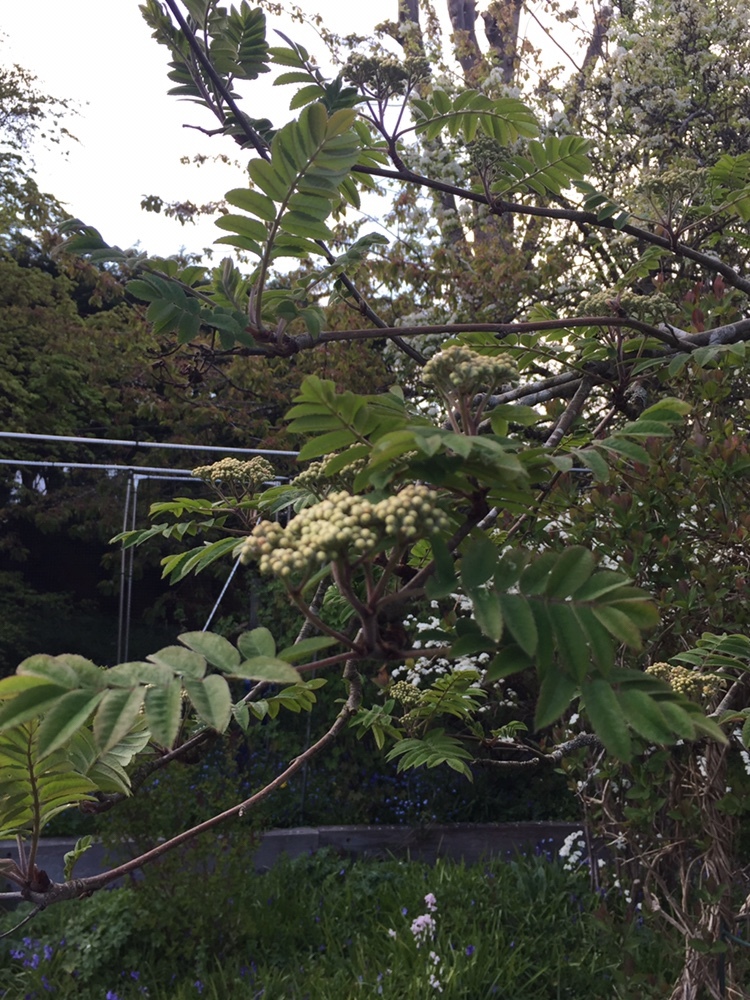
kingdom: Plantae
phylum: Tracheophyta
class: Magnoliopsida
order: Rosales
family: Rosaceae
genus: Sorbus
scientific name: Sorbus aucuparia
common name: Rowan
